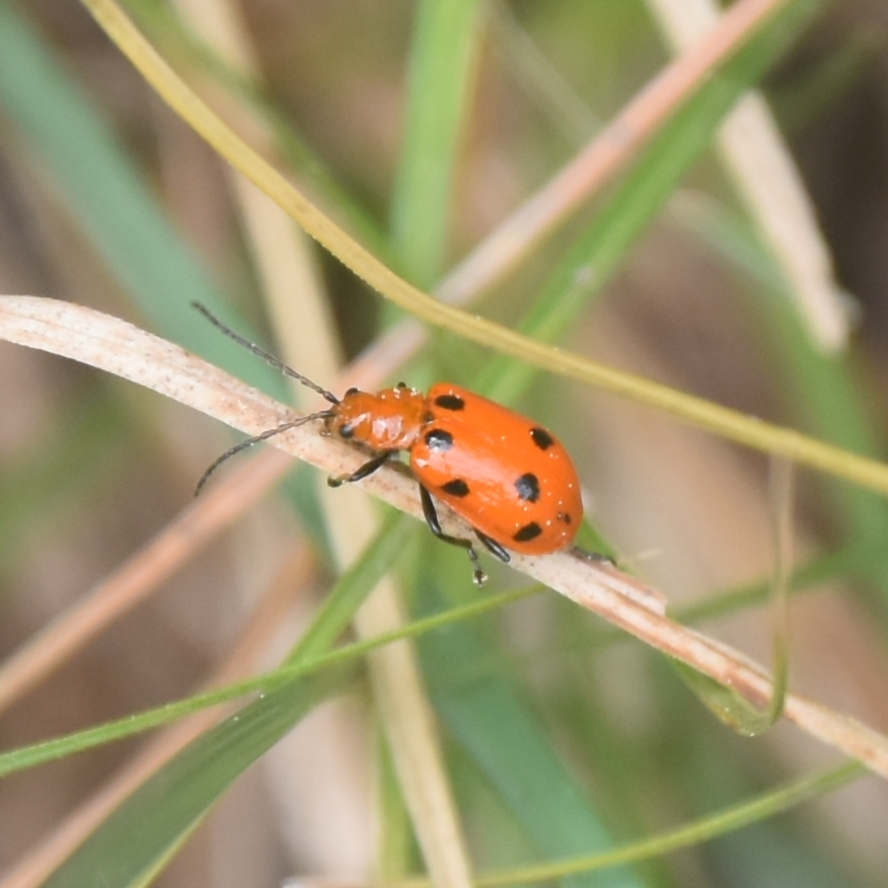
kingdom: Animalia
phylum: Arthropoda
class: Insecta
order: Coleoptera
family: Chrysomelidae
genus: Paridea
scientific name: Paridea
